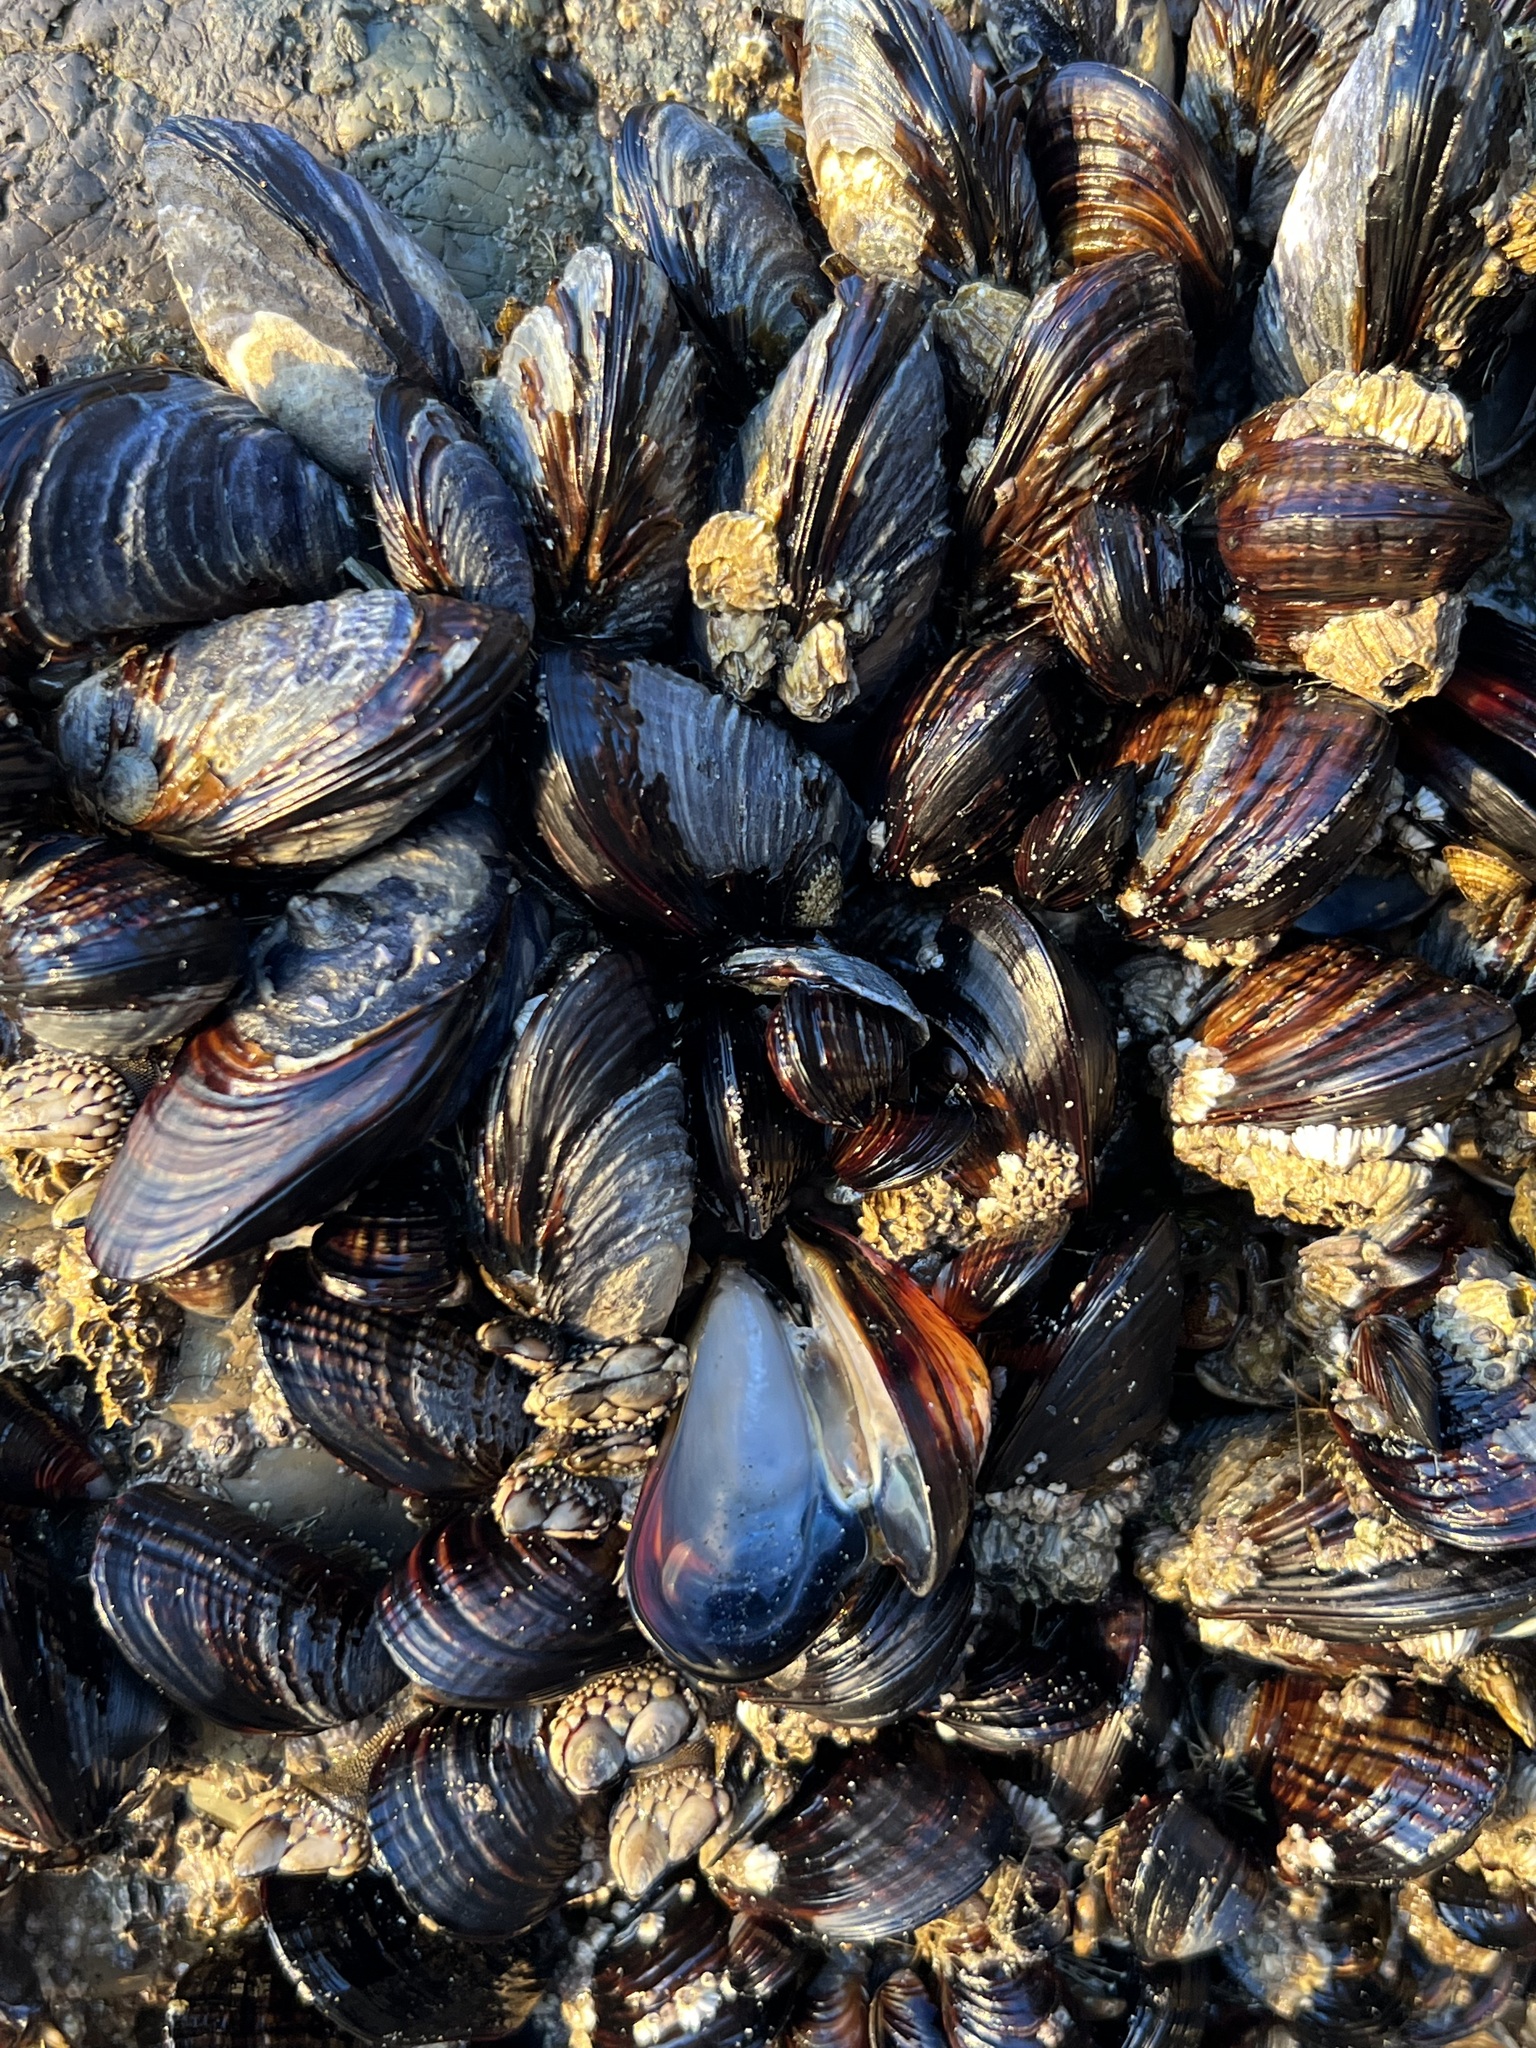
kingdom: Animalia
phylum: Mollusca
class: Bivalvia
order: Mytilida
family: Mytilidae
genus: Mytilus
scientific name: Mytilus californianus
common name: California mussel
